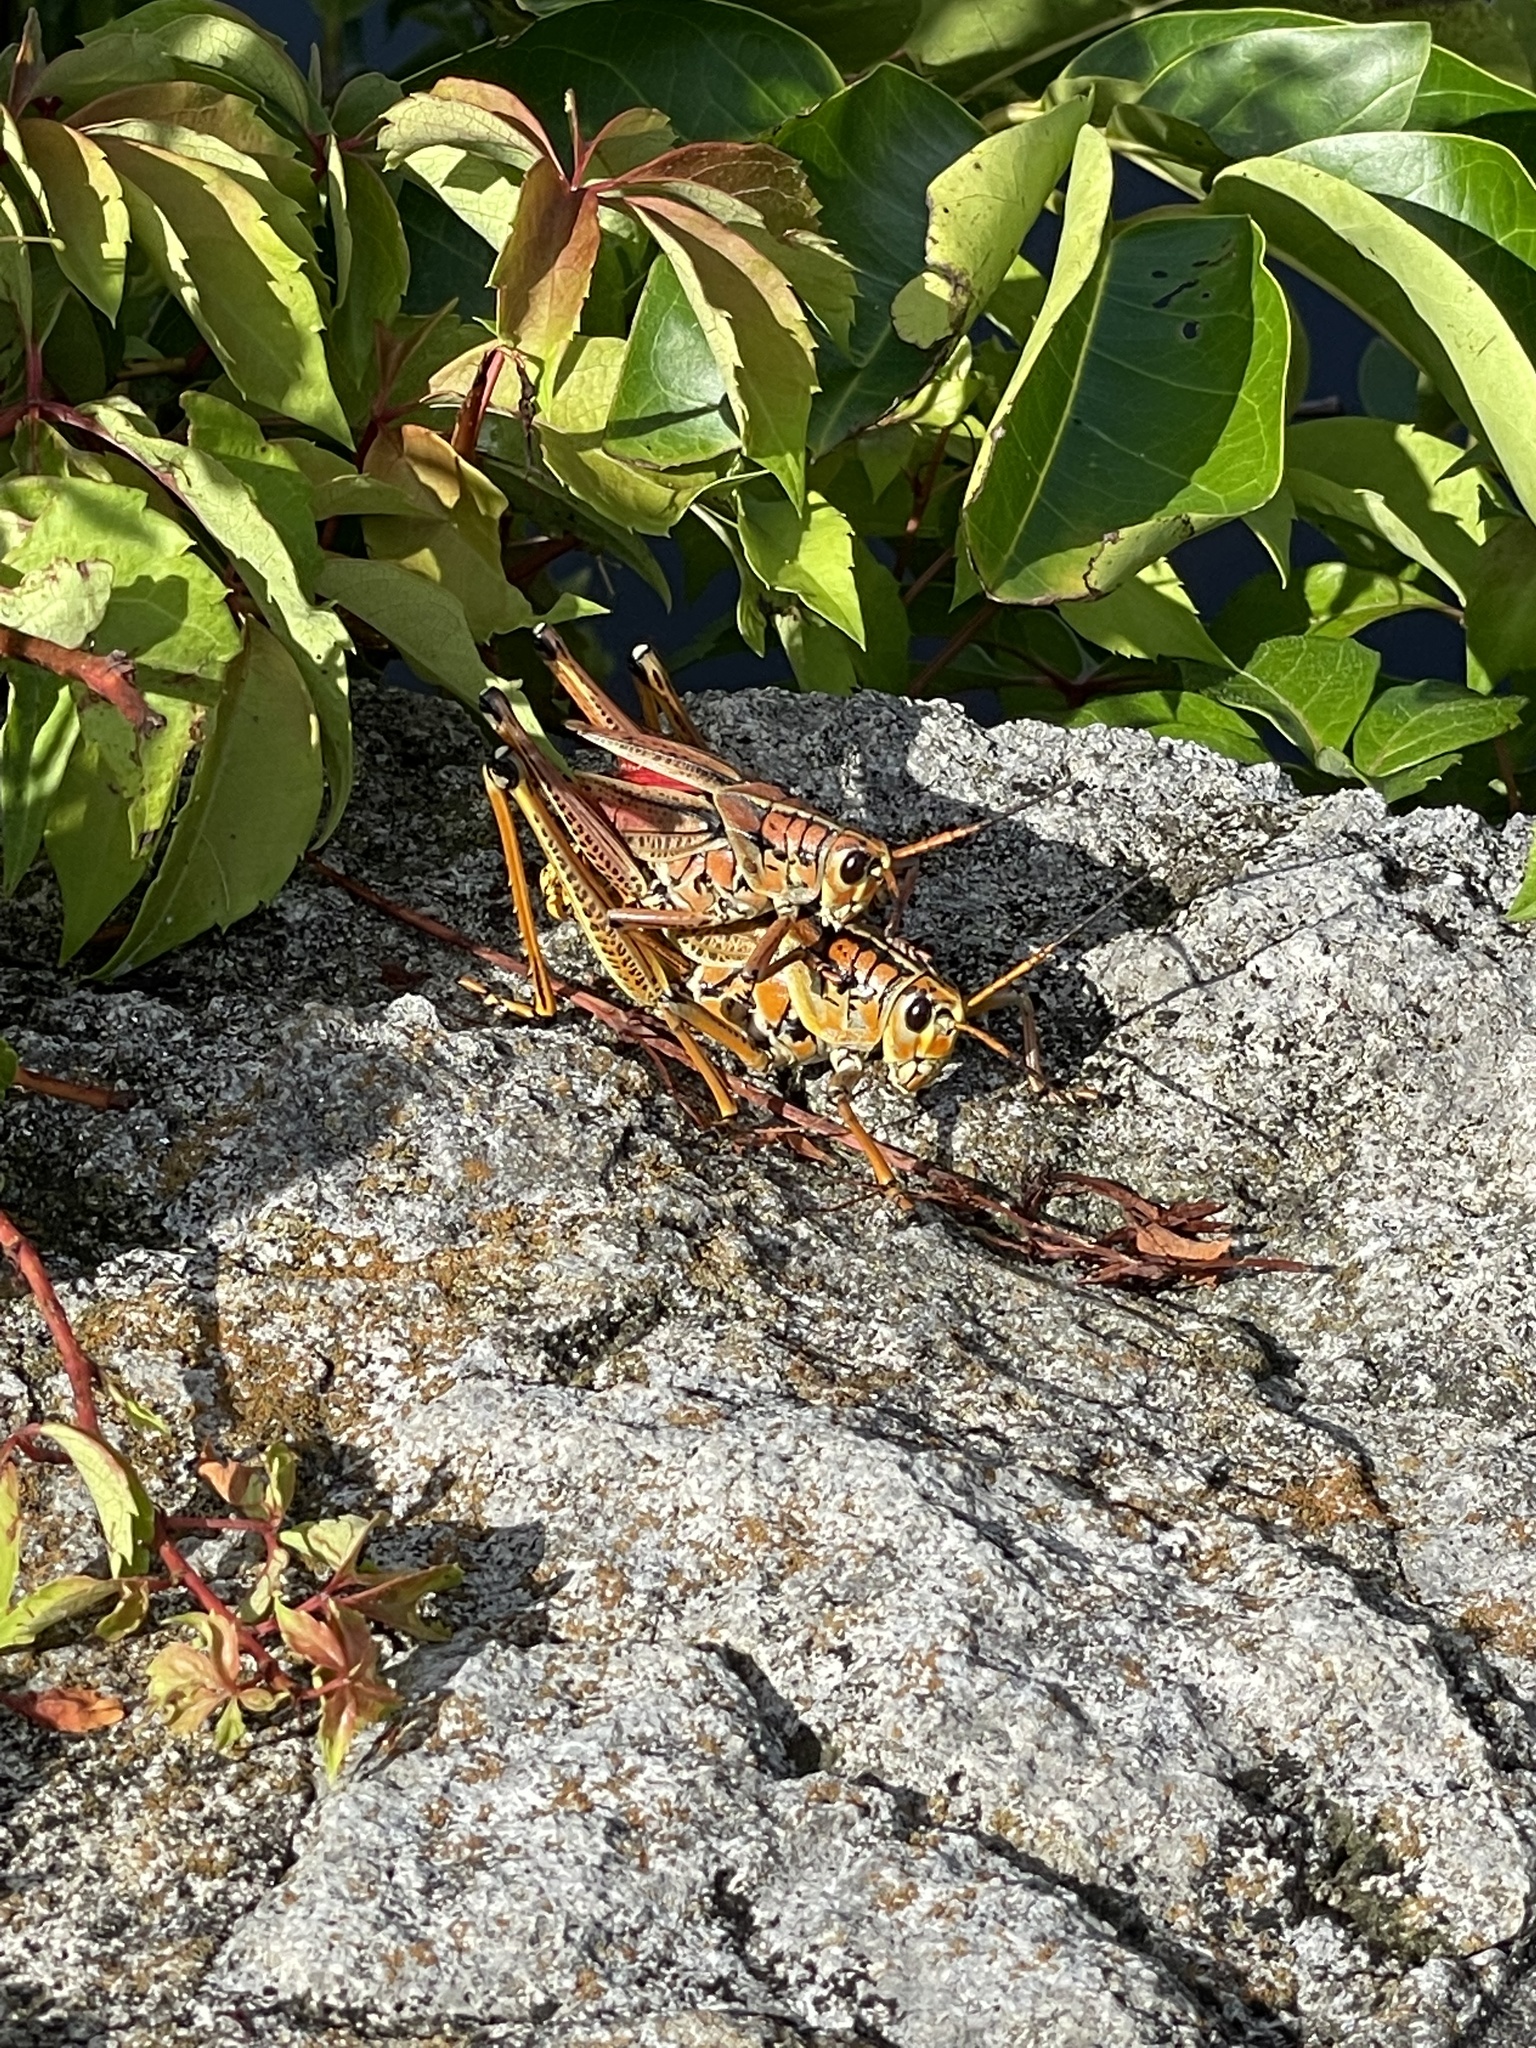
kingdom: Animalia
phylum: Arthropoda
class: Insecta
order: Orthoptera
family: Romaleidae
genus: Romalea
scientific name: Romalea microptera
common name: Eastern lubber grasshopper
